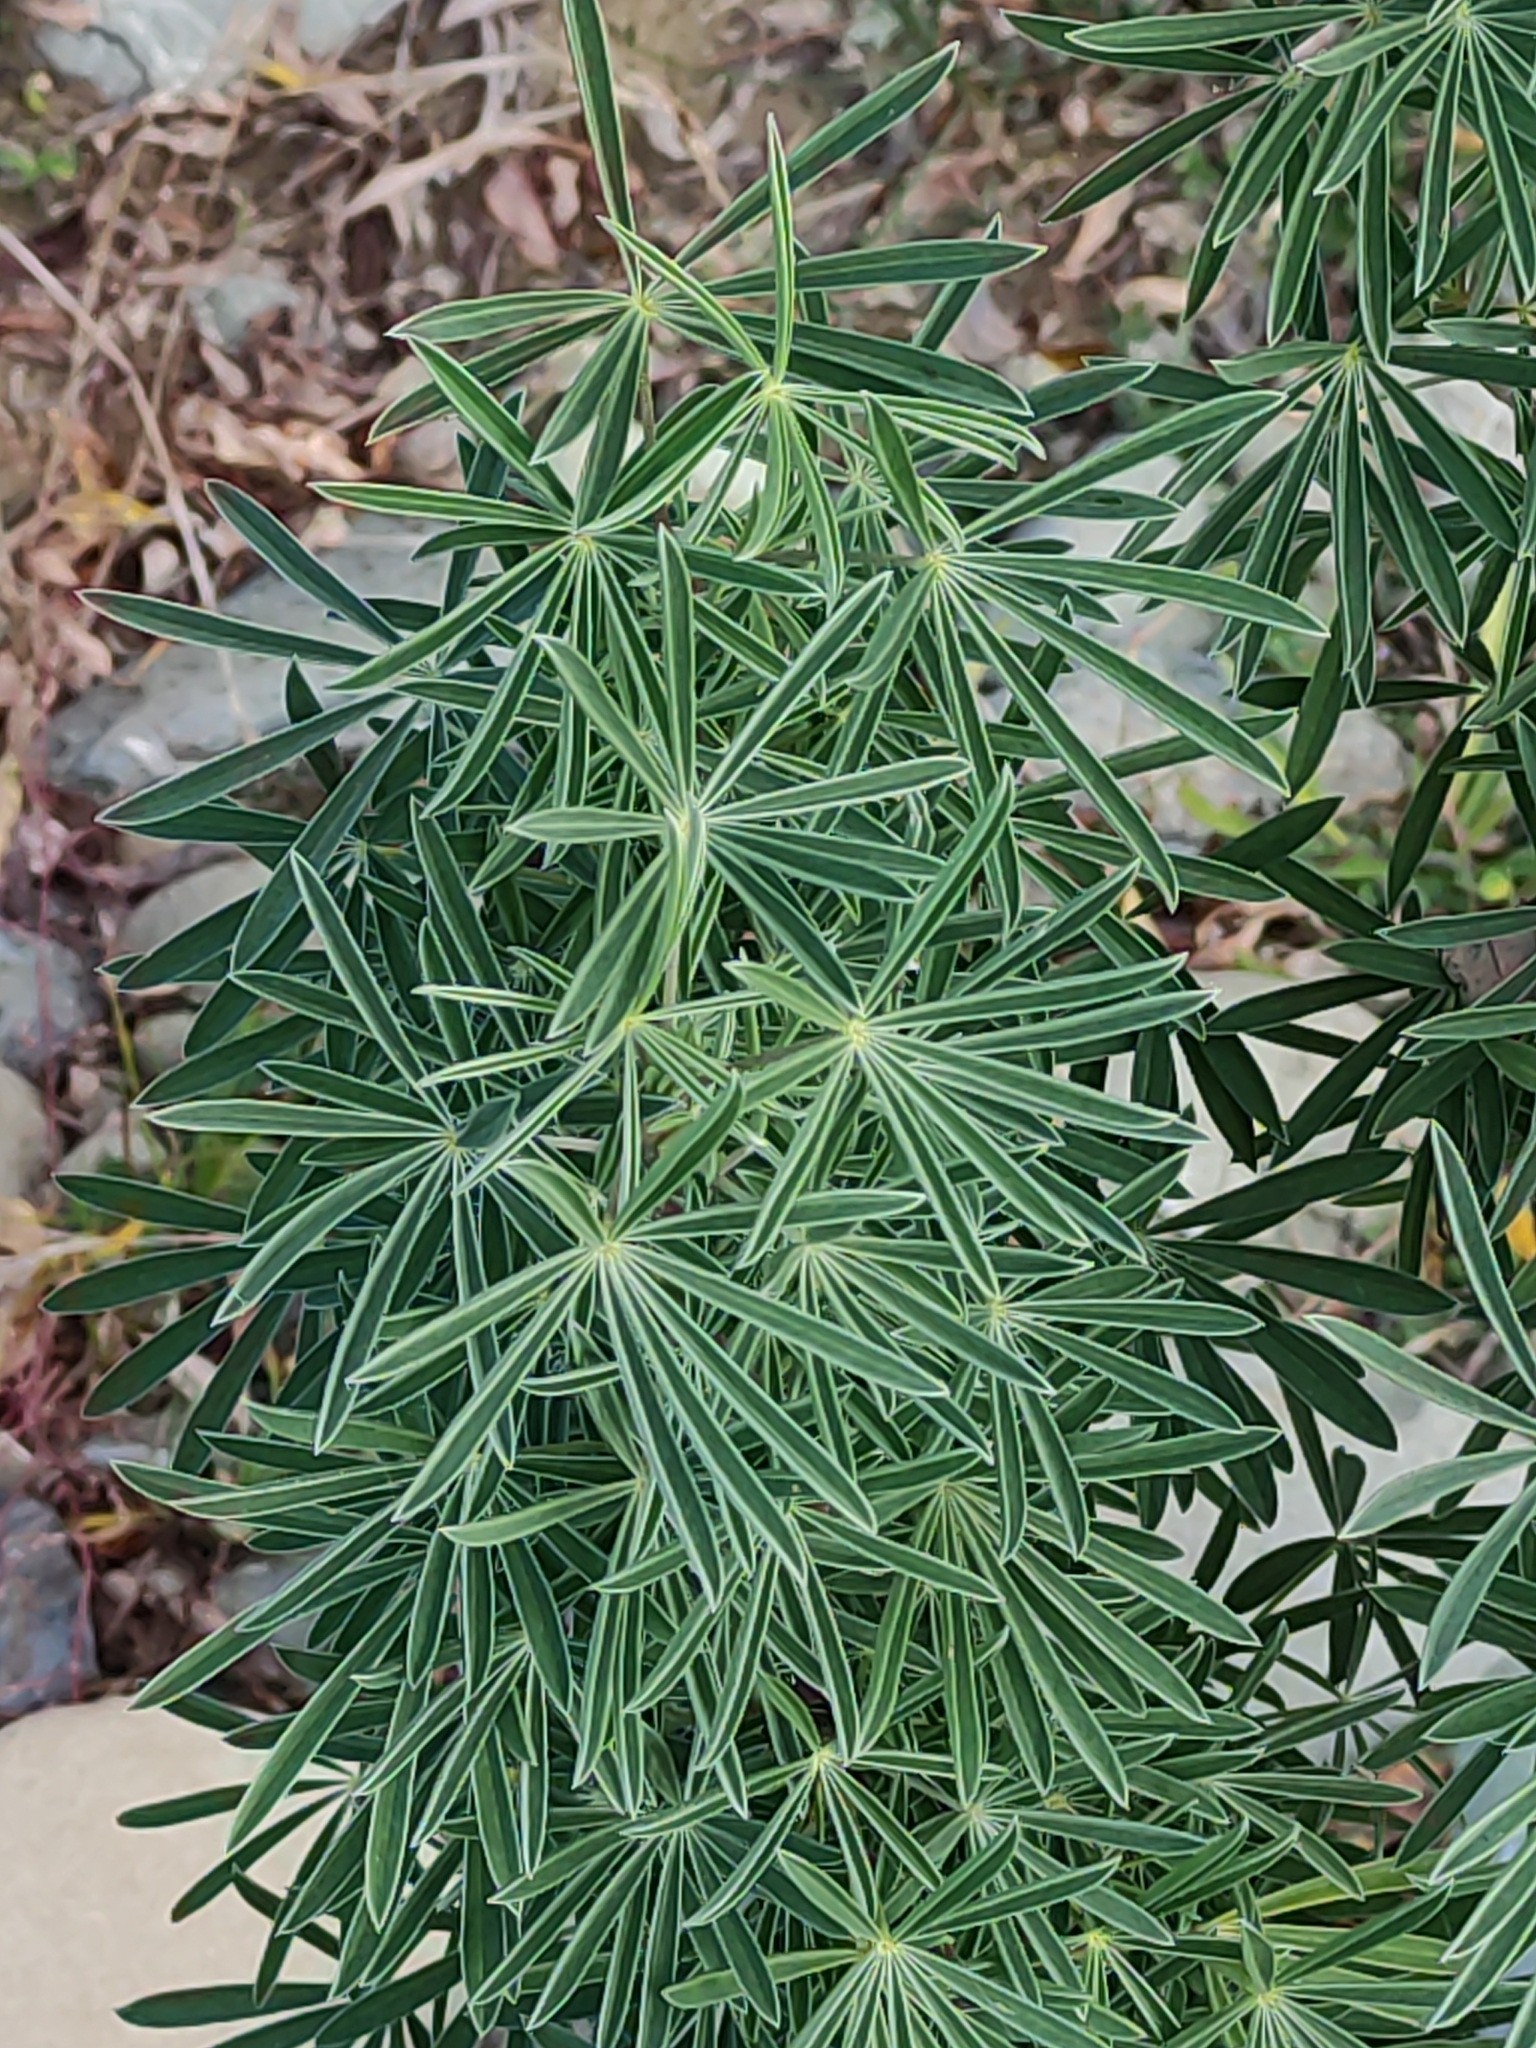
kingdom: Plantae
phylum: Tracheophyta
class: Magnoliopsida
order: Fabales
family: Fabaceae
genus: Lupinus
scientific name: Lupinus arboreus
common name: Yellow bush lupine
